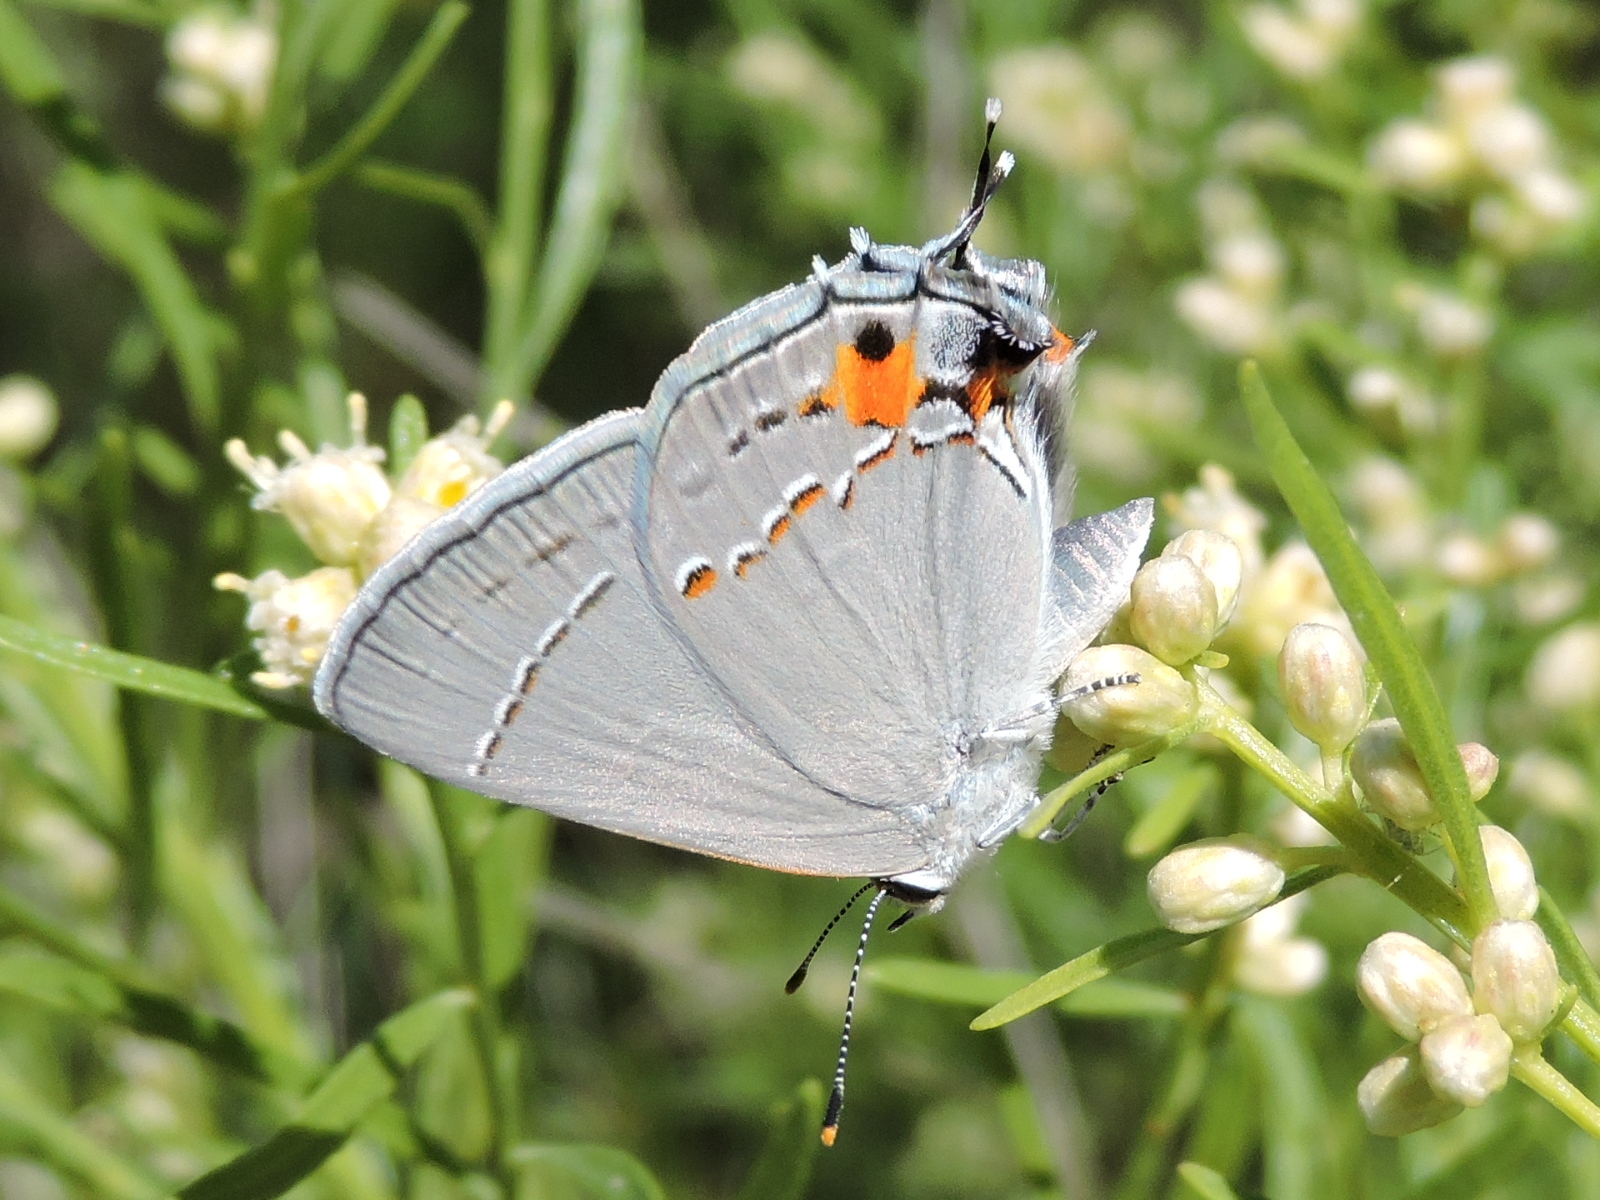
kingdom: Animalia
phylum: Arthropoda
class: Insecta
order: Lepidoptera
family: Lycaenidae
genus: Strymon
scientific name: Strymon melinus
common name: Gray hairstreak
